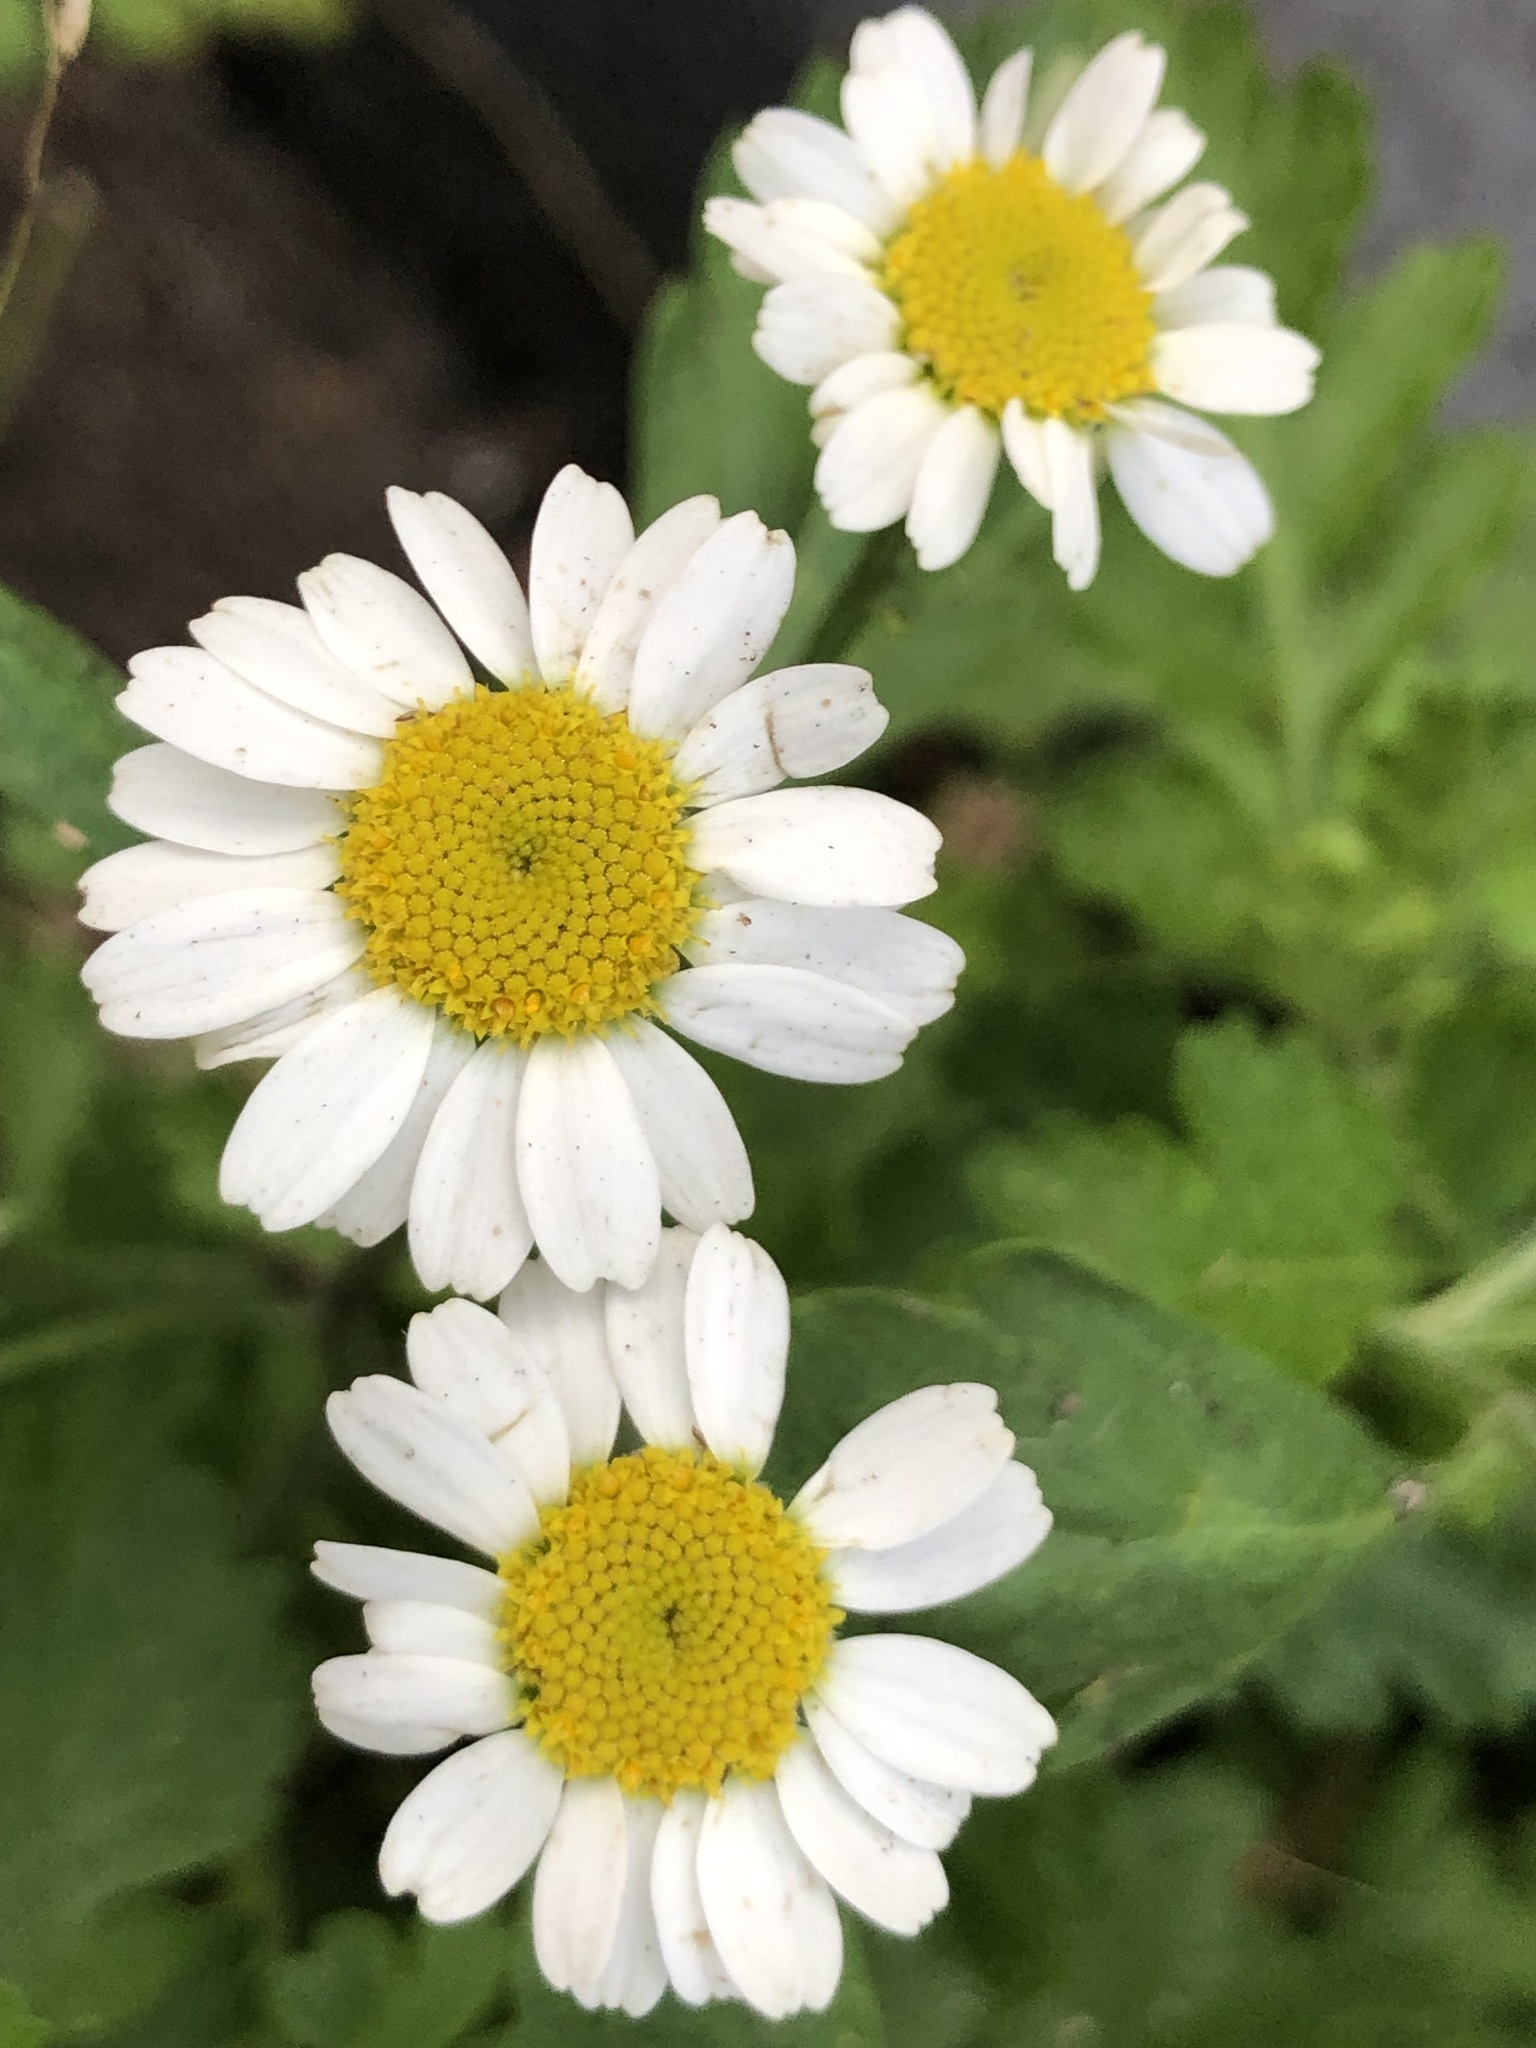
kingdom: Plantae
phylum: Tracheophyta
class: Magnoliopsida
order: Asterales
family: Asteraceae
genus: Tanacetum
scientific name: Tanacetum parthenium
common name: Feverfew
